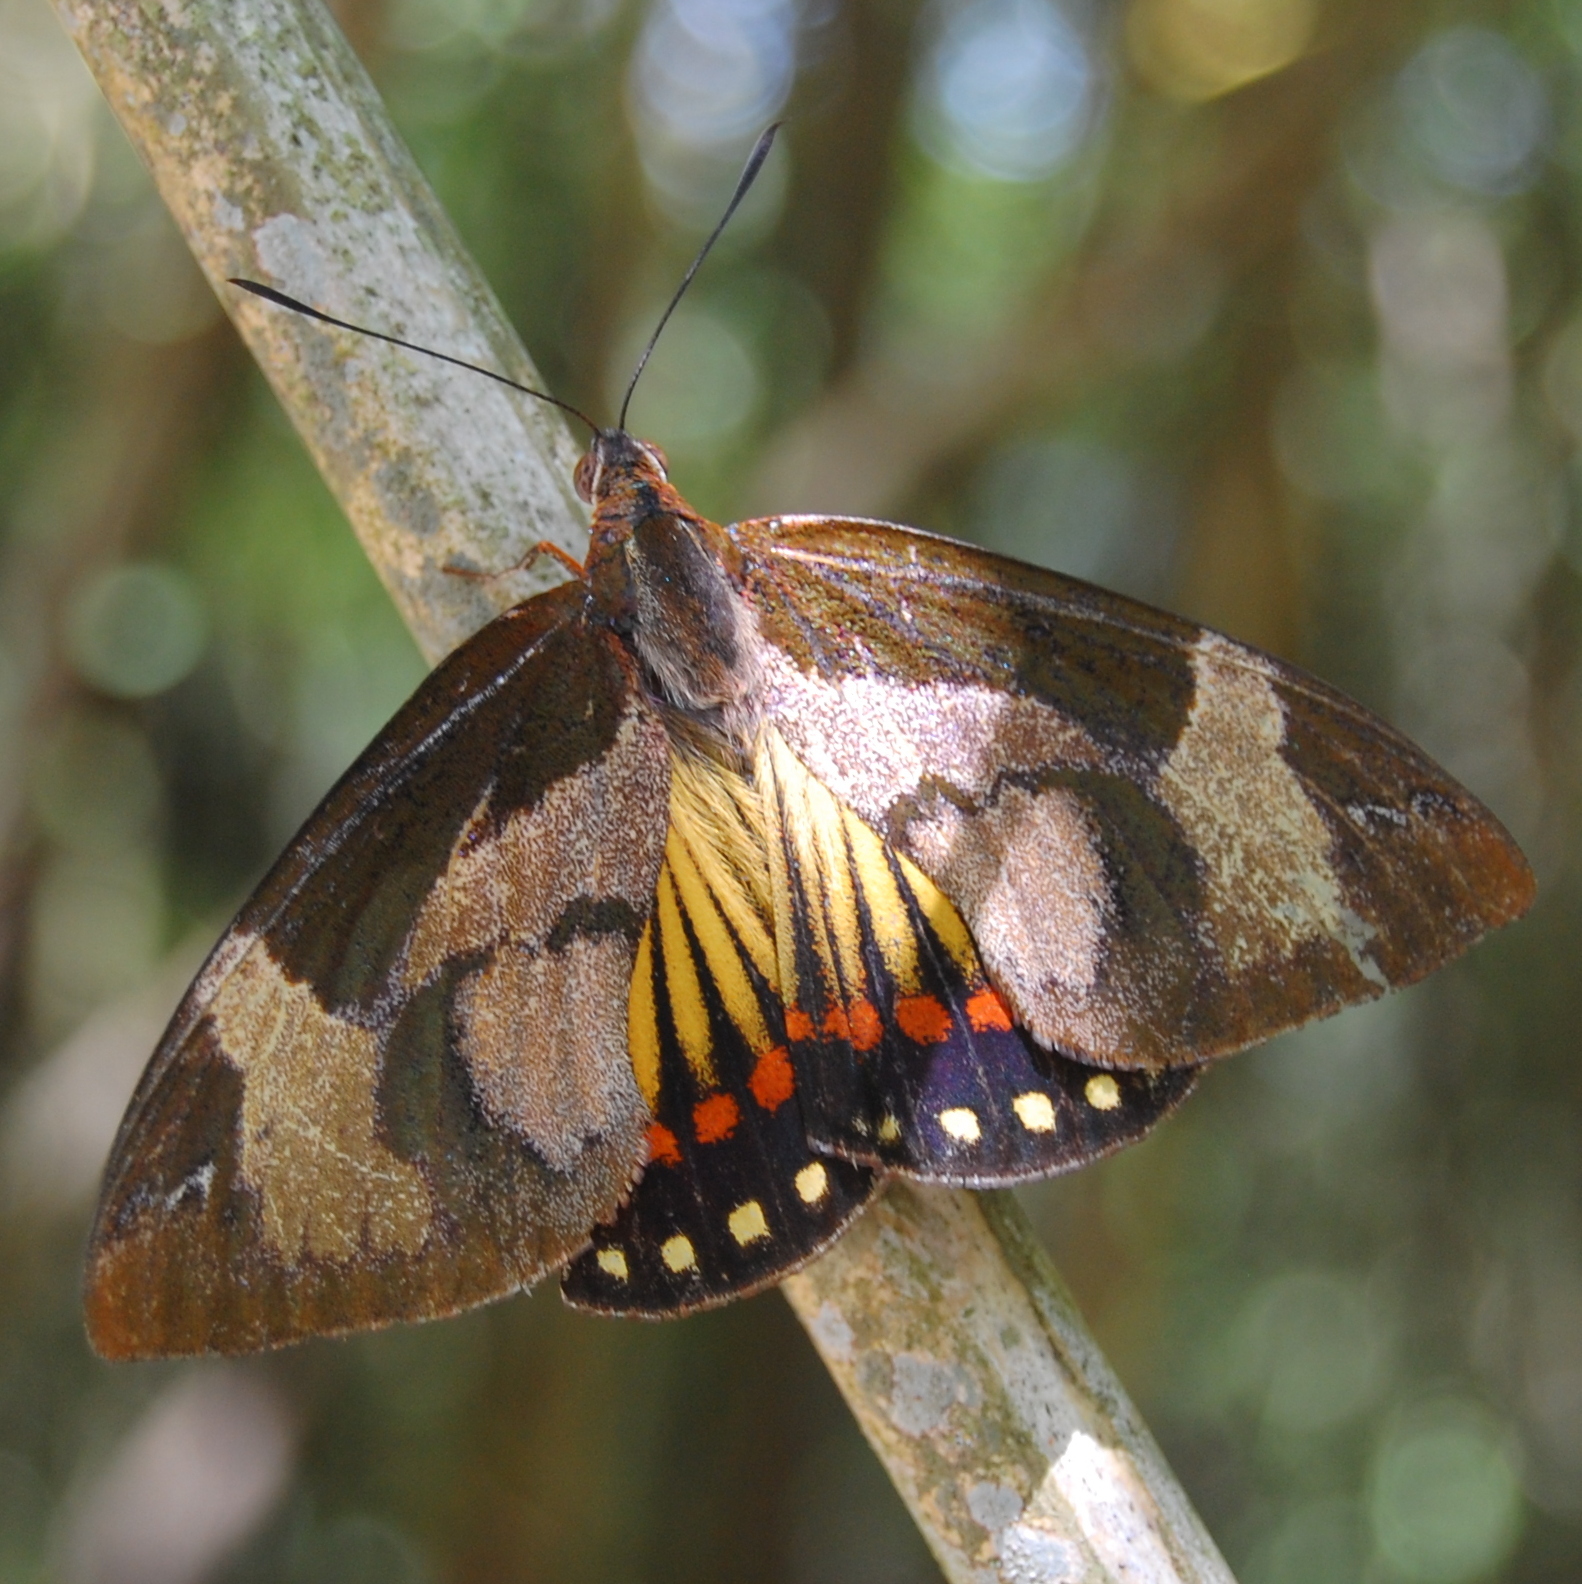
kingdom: Animalia
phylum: Arthropoda
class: Insecta
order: Lepidoptera
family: Castniidae
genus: Imara
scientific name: Imara satrapes
